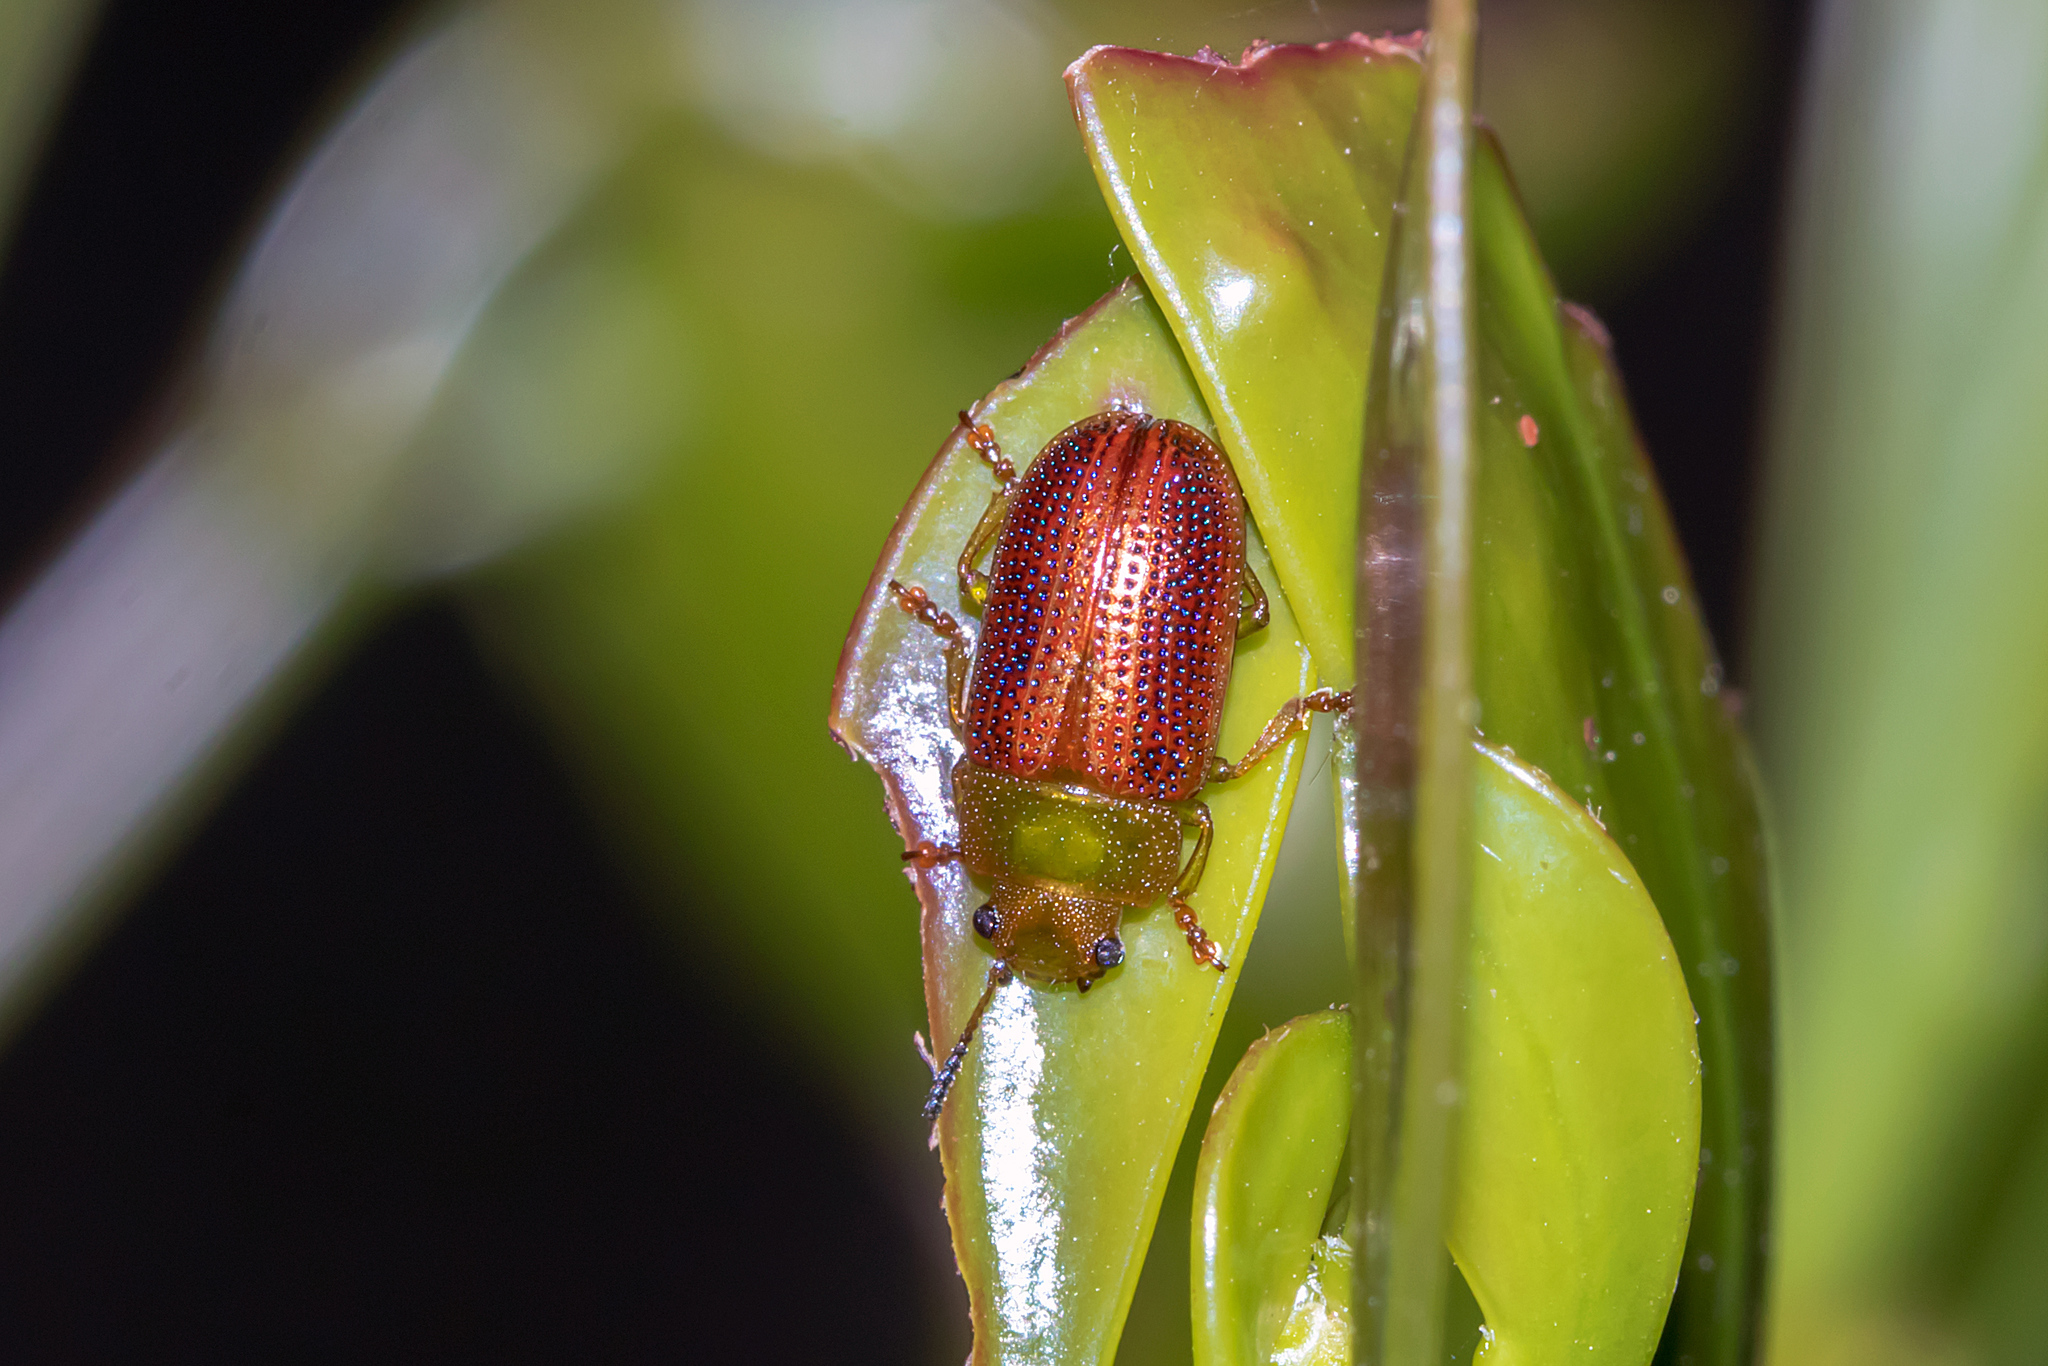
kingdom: Animalia
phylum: Arthropoda
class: Insecta
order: Coleoptera
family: Chrysomelidae
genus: Calomela
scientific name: Calomela
